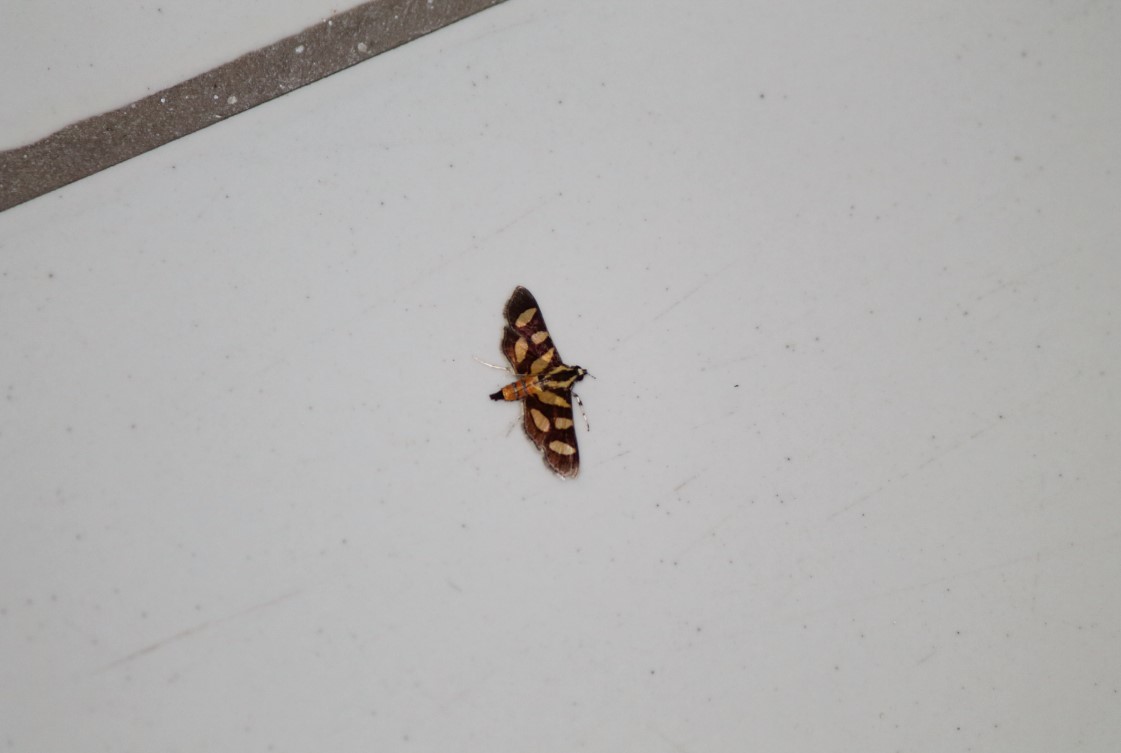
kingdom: Animalia
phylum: Arthropoda
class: Insecta
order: Lepidoptera
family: Crambidae
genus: Syngamia
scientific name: Syngamia florella
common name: Orange-spotted flower moth
